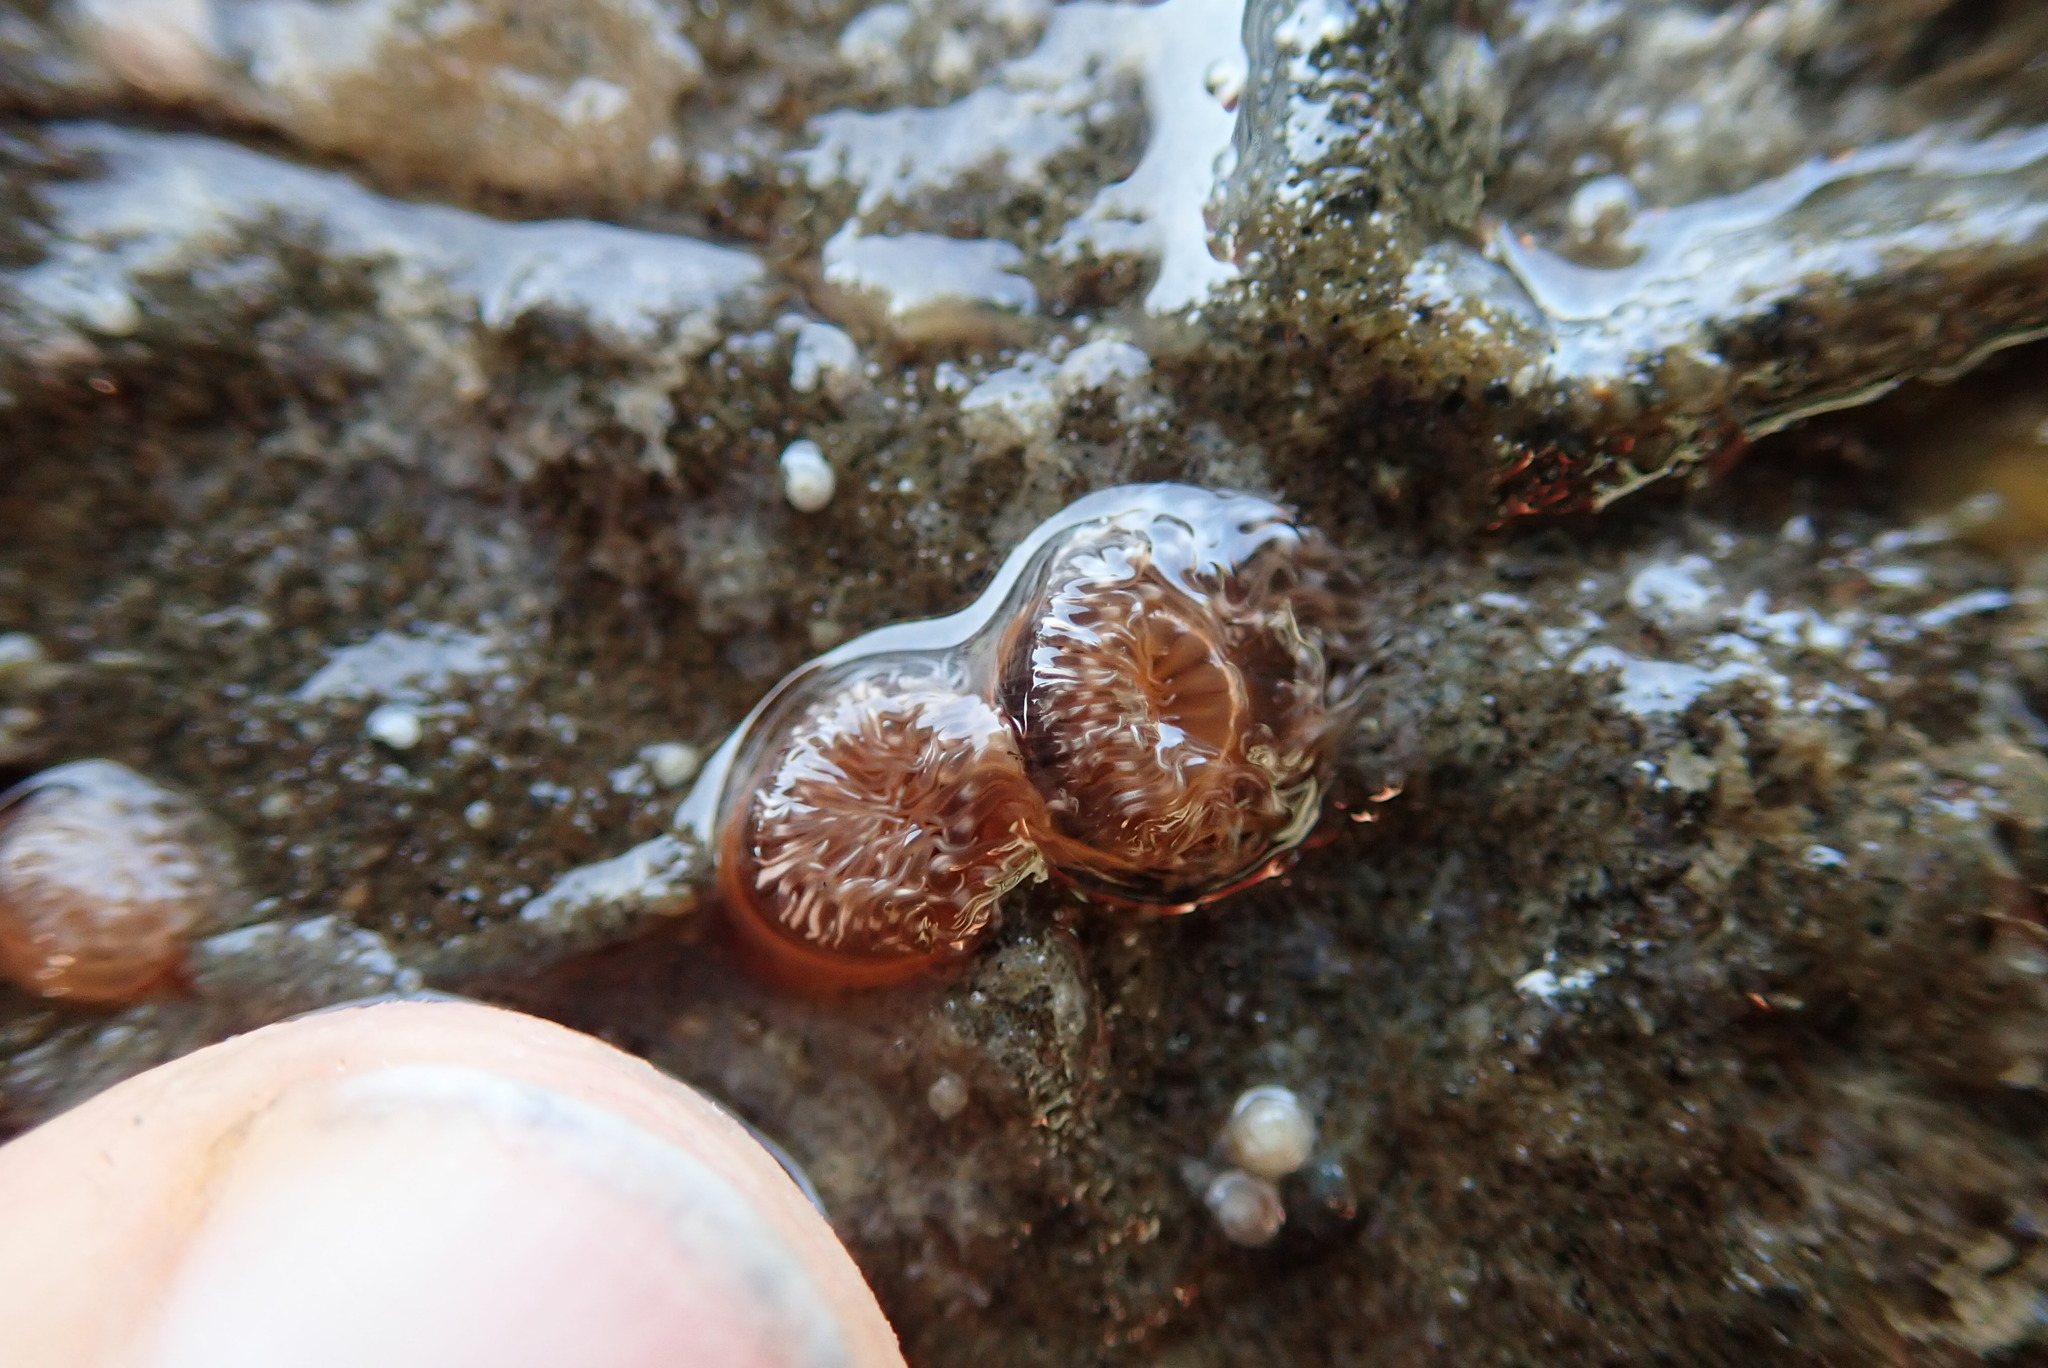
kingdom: Animalia
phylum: Cnidaria
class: Anthozoa
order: Actiniaria
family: Metridiidae
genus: Metridium
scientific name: Metridium senile
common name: Clonal plumose anemone
